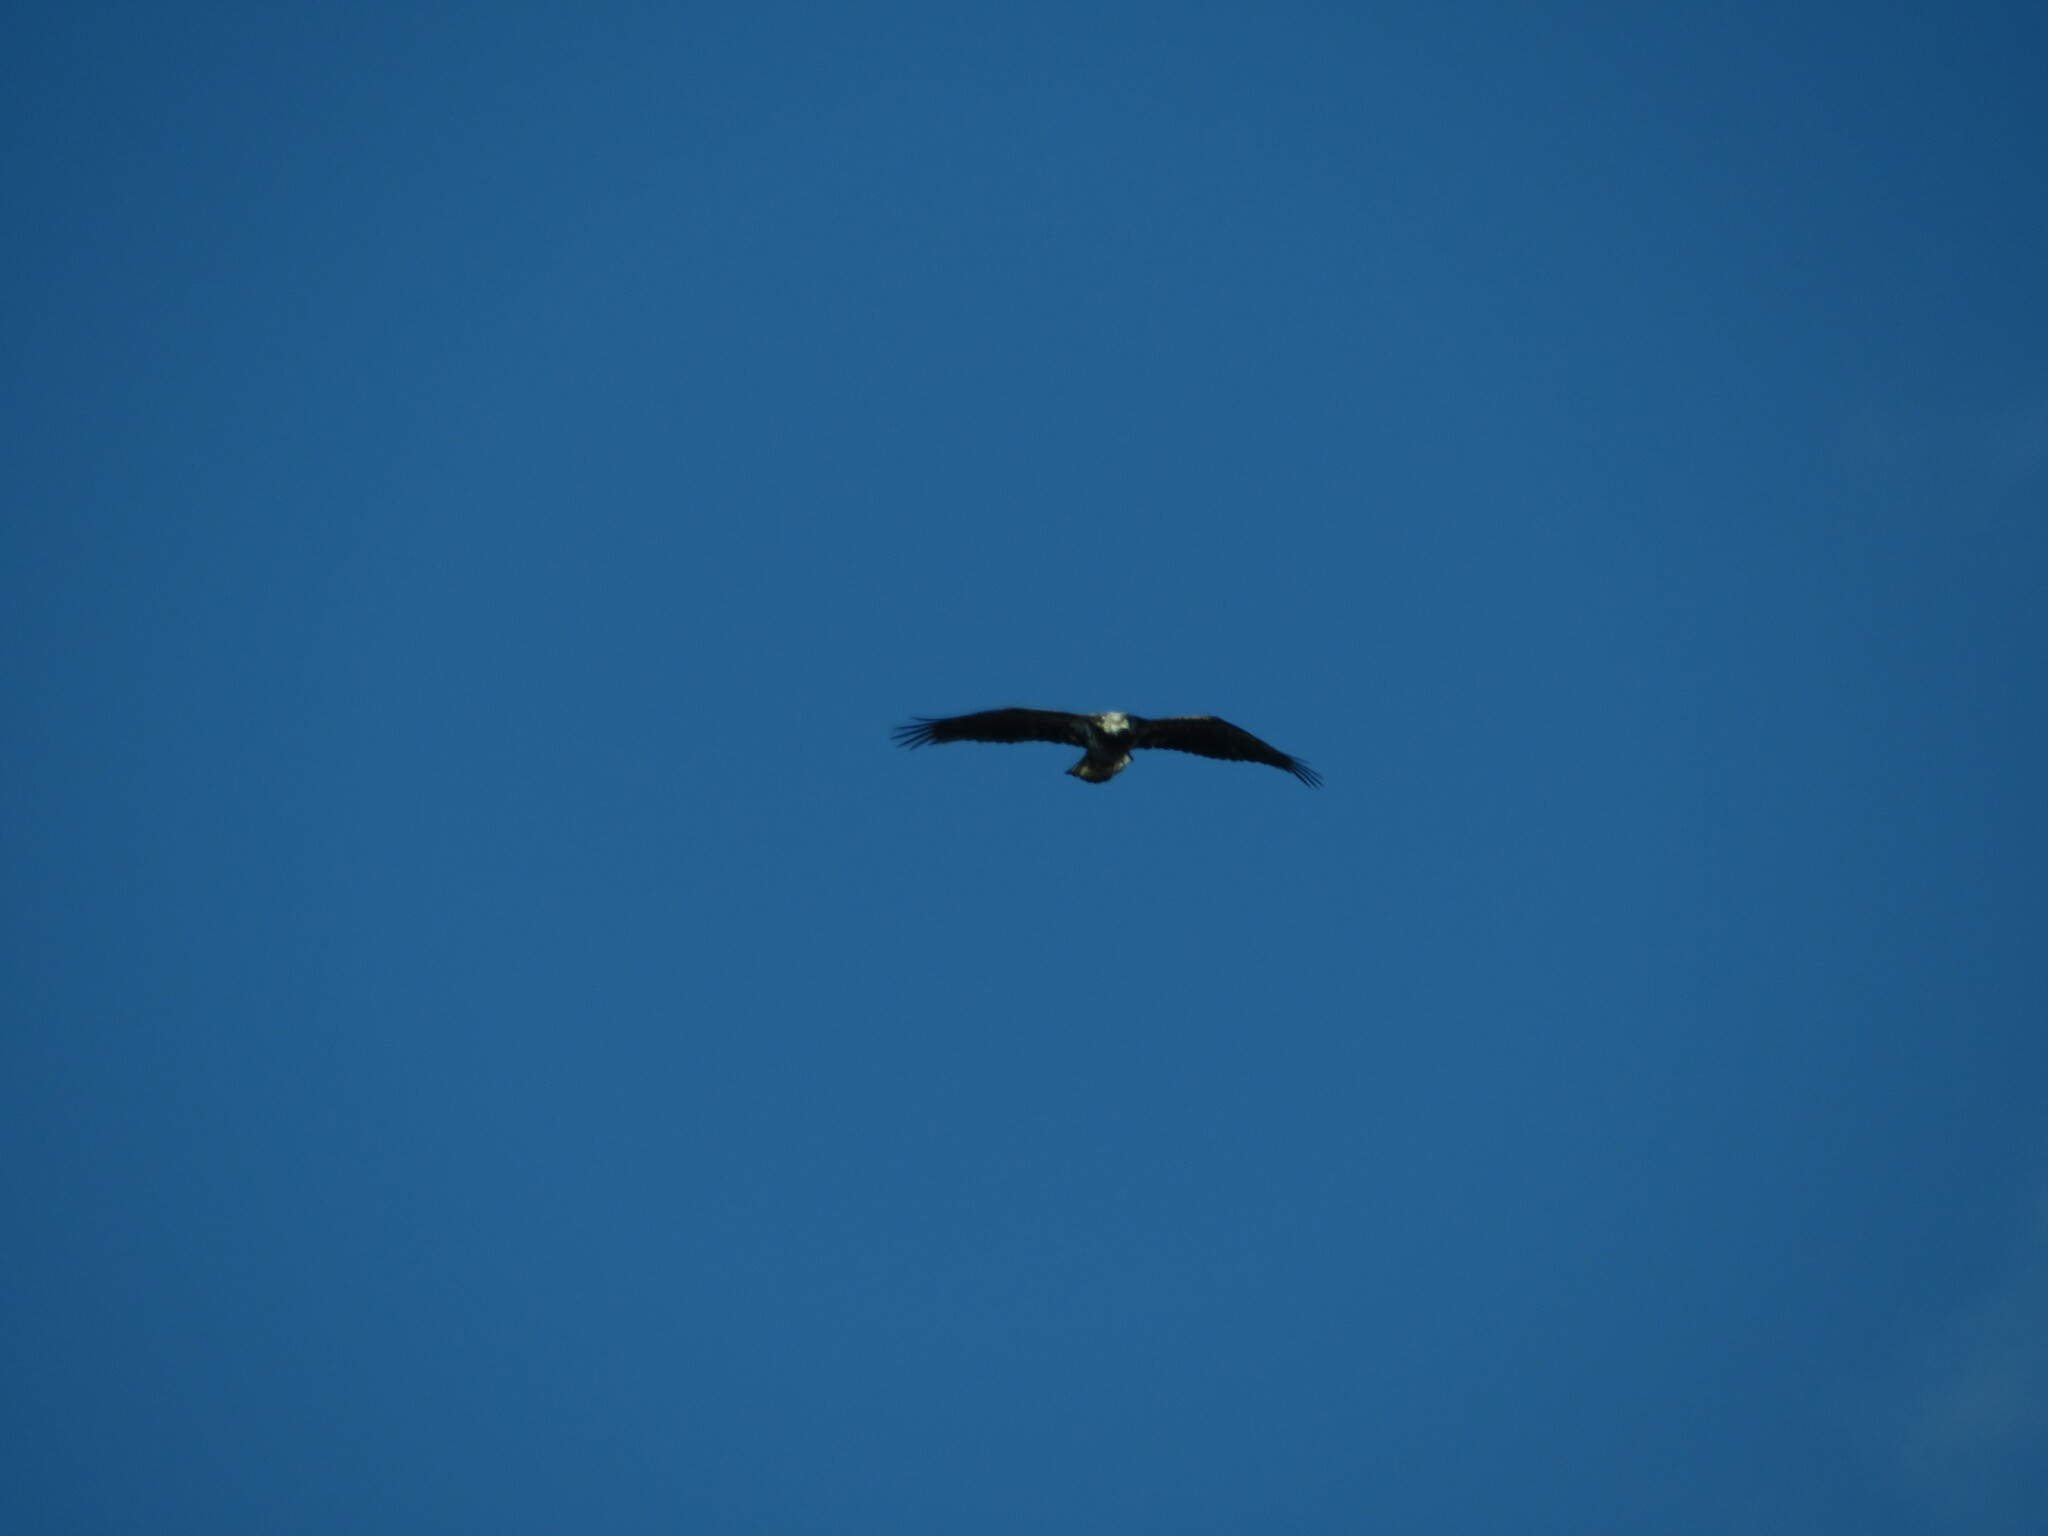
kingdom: Animalia
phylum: Chordata
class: Aves
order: Accipitriformes
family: Accipitridae
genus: Haliaeetus
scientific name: Haliaeetus leucocephalus
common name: Bald eagle
